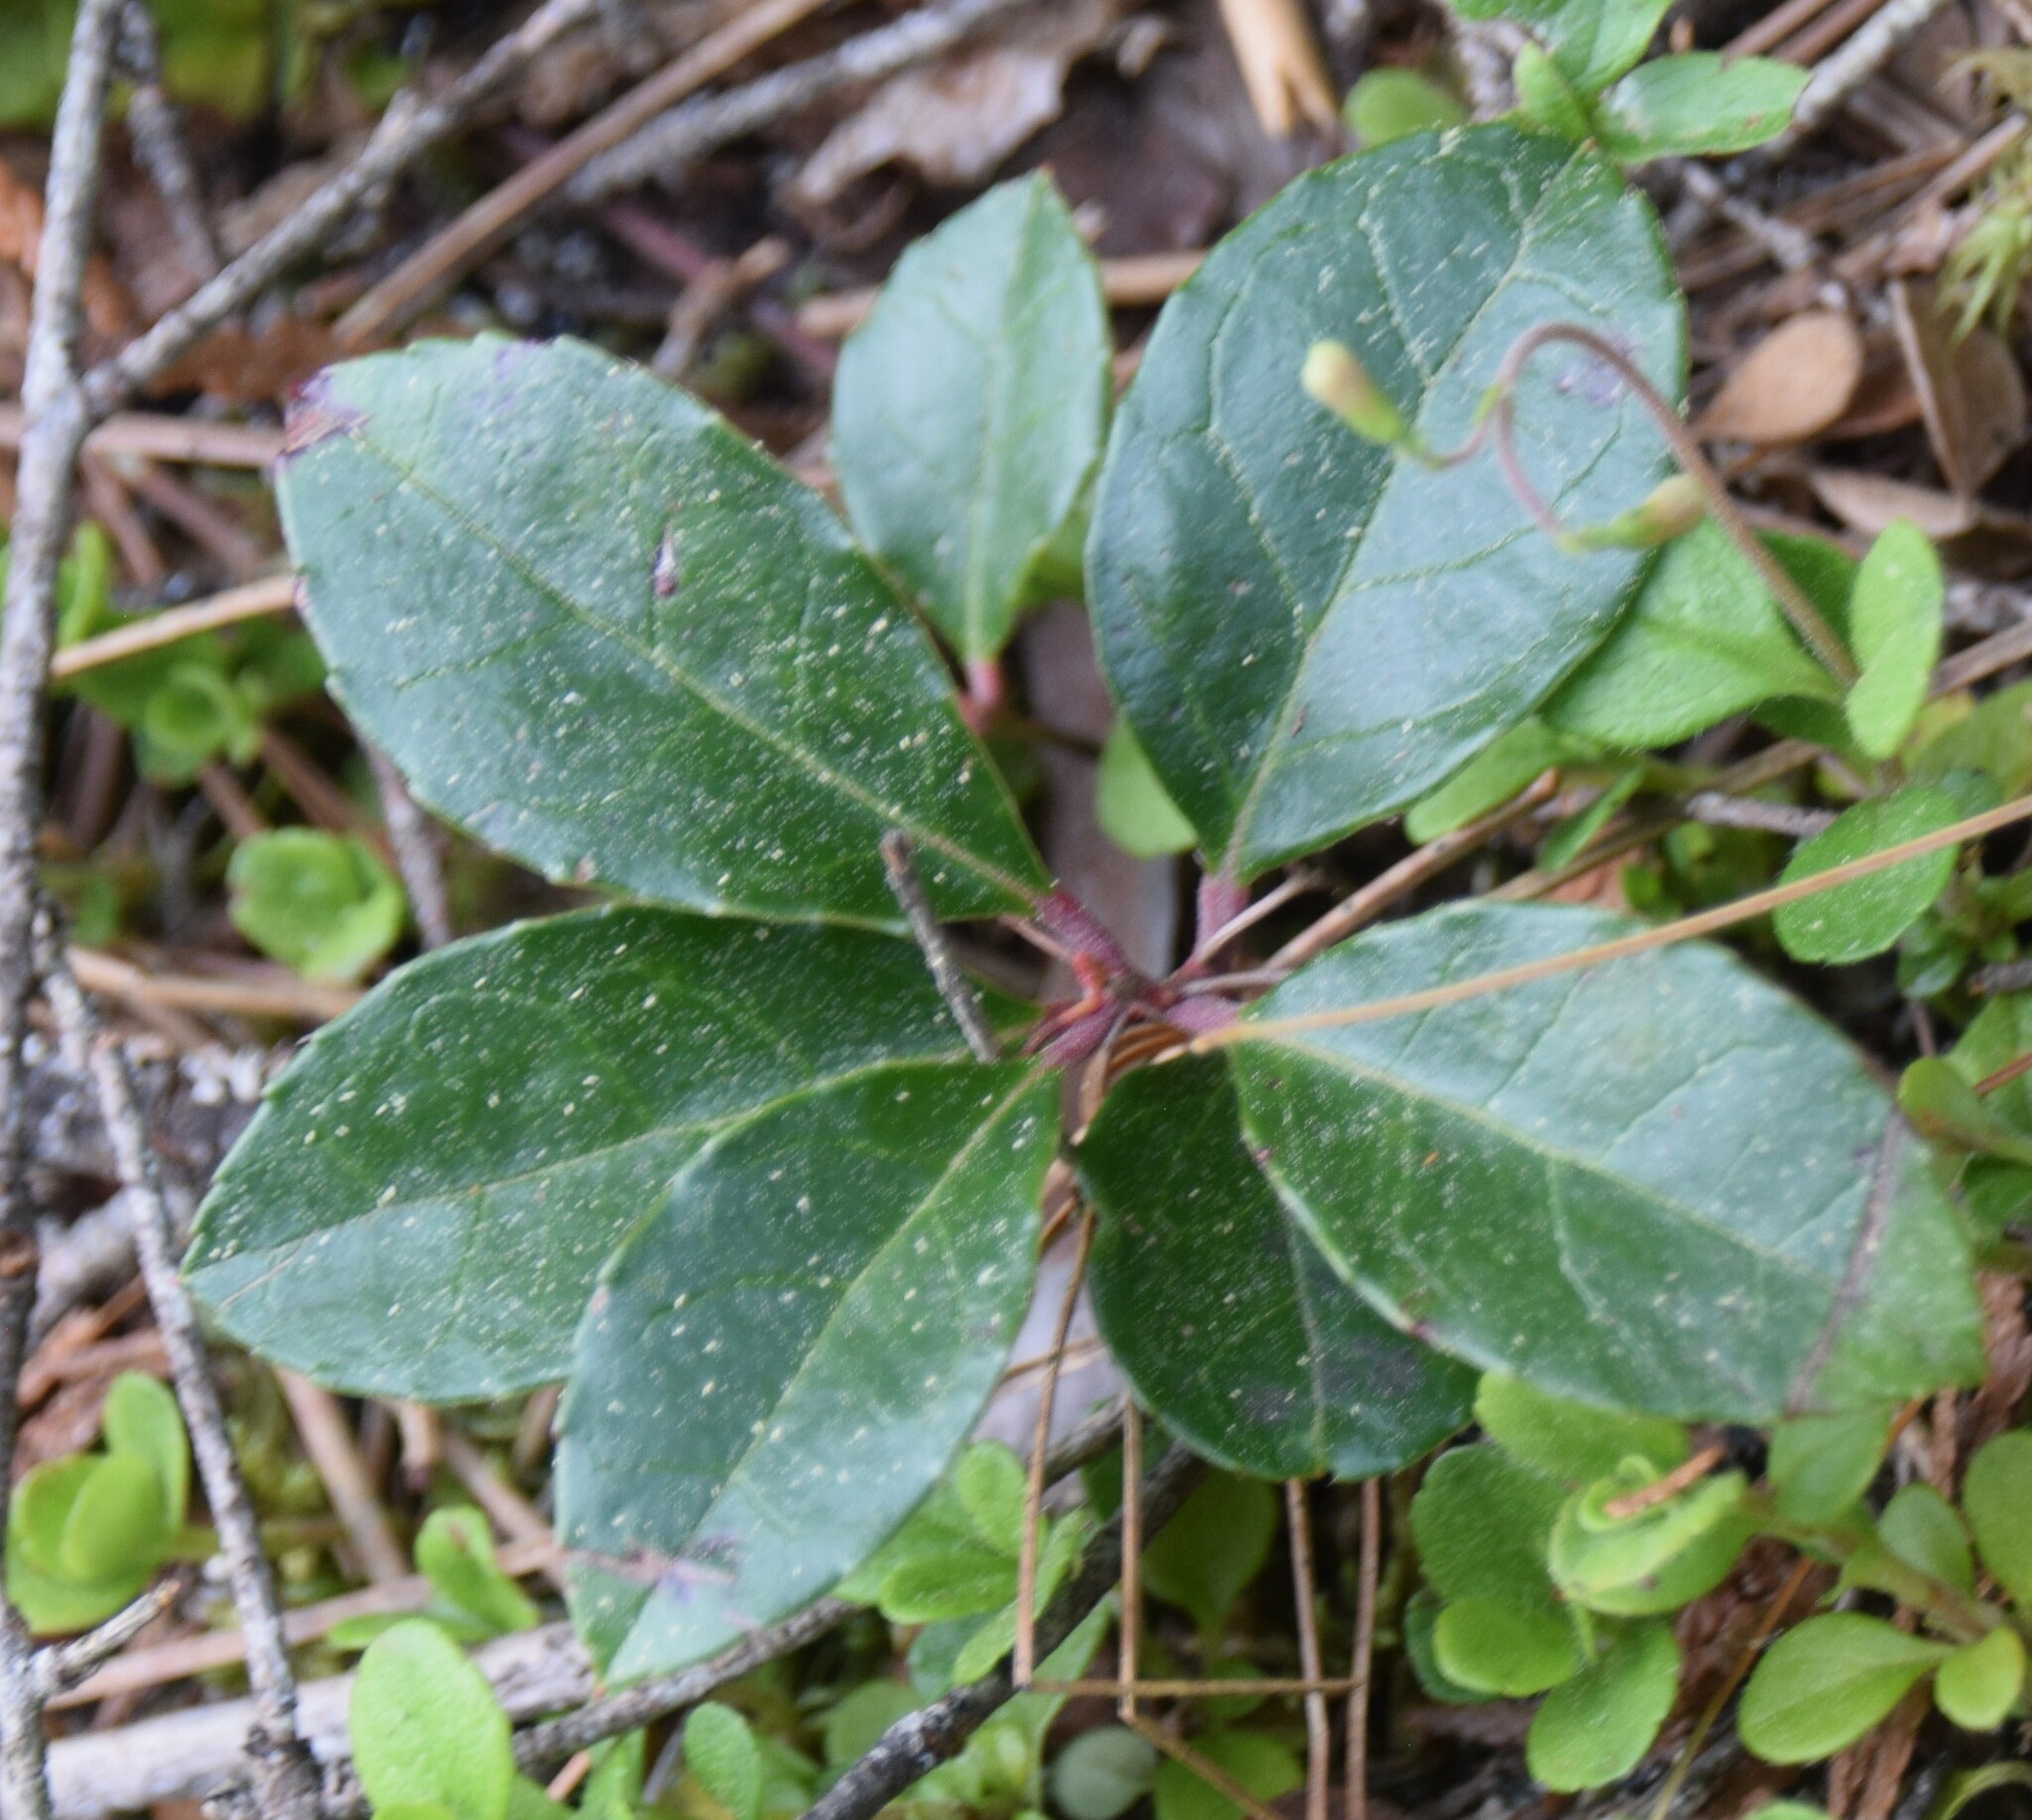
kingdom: Plantae
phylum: Tracheophyta
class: Magnoliopsida
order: Ericales
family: Ericaceae
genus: Gaultheria
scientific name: Gaultheria procumbens
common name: Checkerberry
